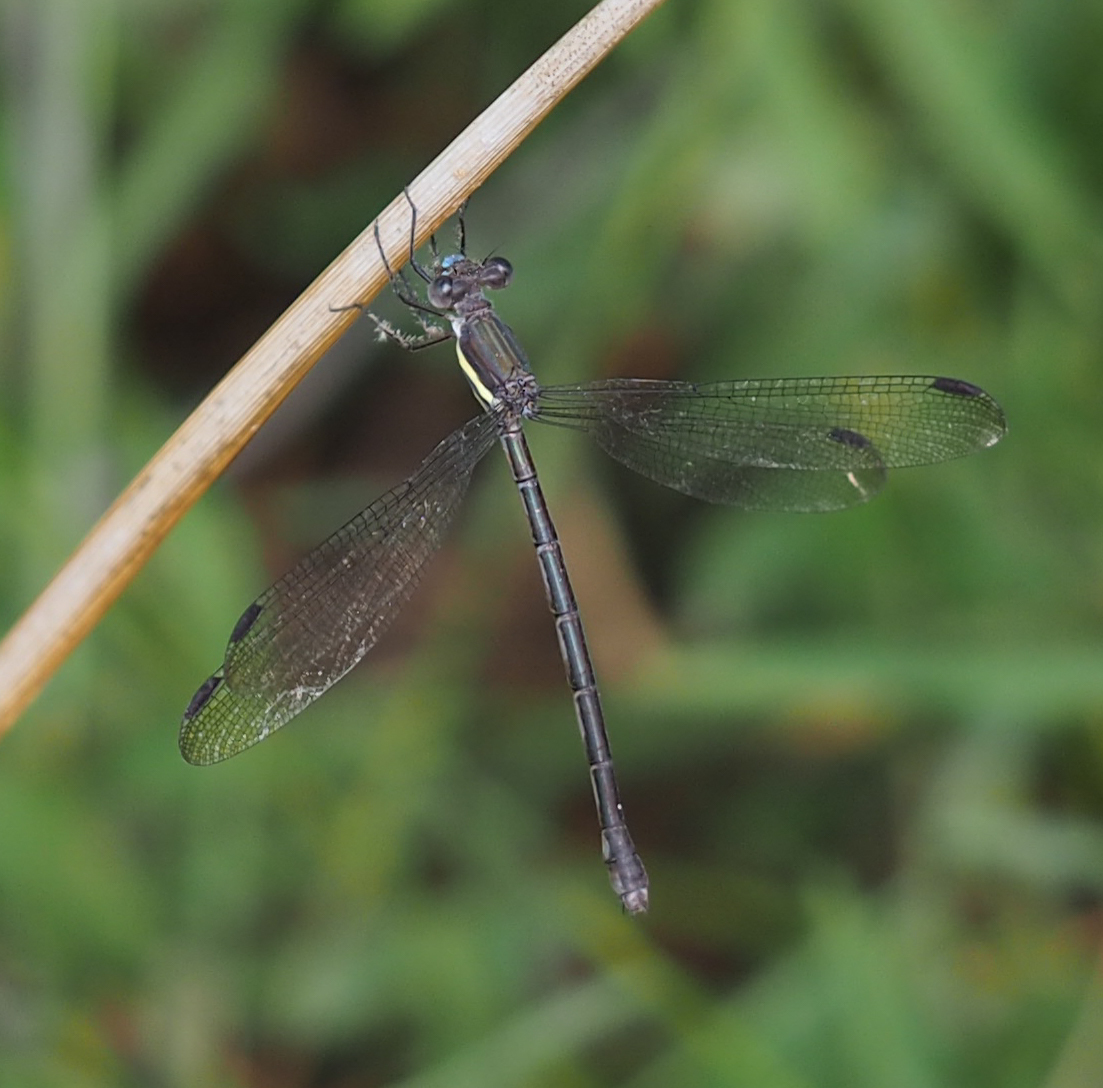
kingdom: Animalia
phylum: Arthropoda
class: Insecta
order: Odonata
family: Lestidae
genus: Archilestes
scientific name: Archilestes grandis
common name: Great spreadwing
